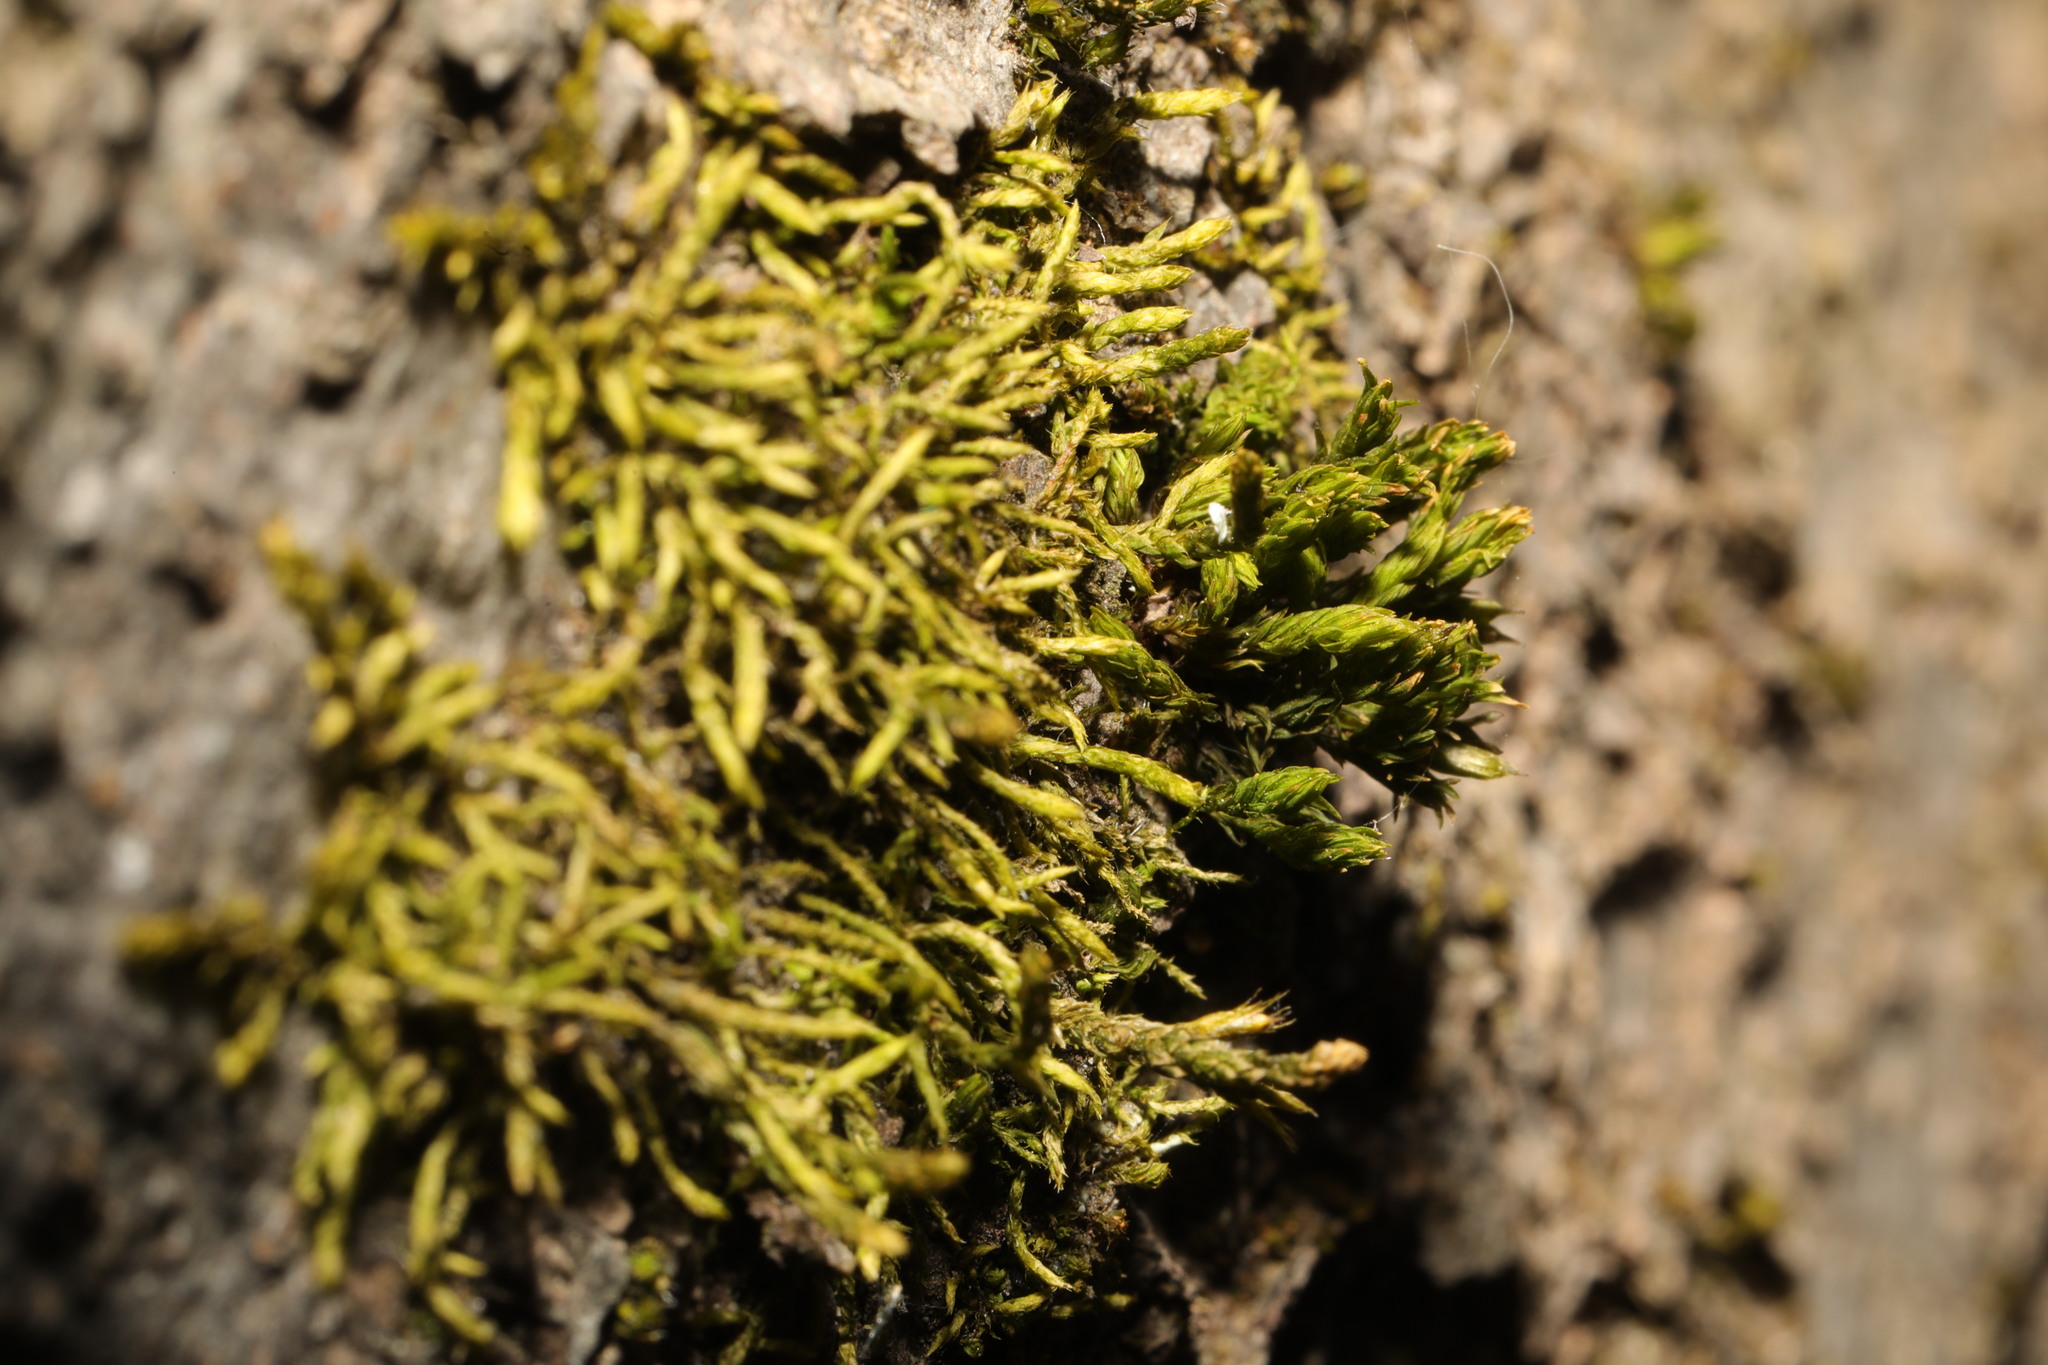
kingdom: Plantae
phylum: Bryophyta
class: Bryopsida
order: Hypnales
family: Cryphaeaceae
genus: Cryphaea
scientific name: Cryphaea heteromalla
